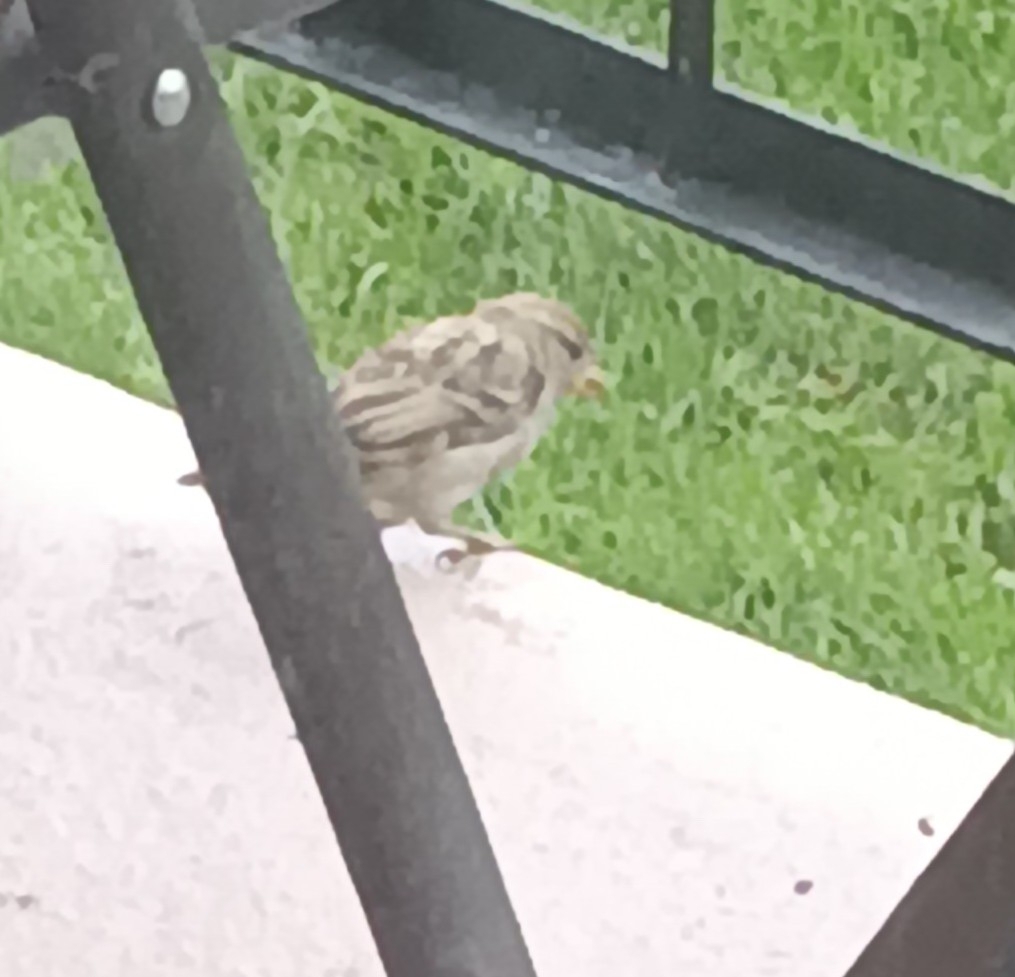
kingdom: Animalia
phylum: Chordata
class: Aves
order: Passeriformes
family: Passeridae
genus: Passer
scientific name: Passer domesticus
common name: House sparrow
